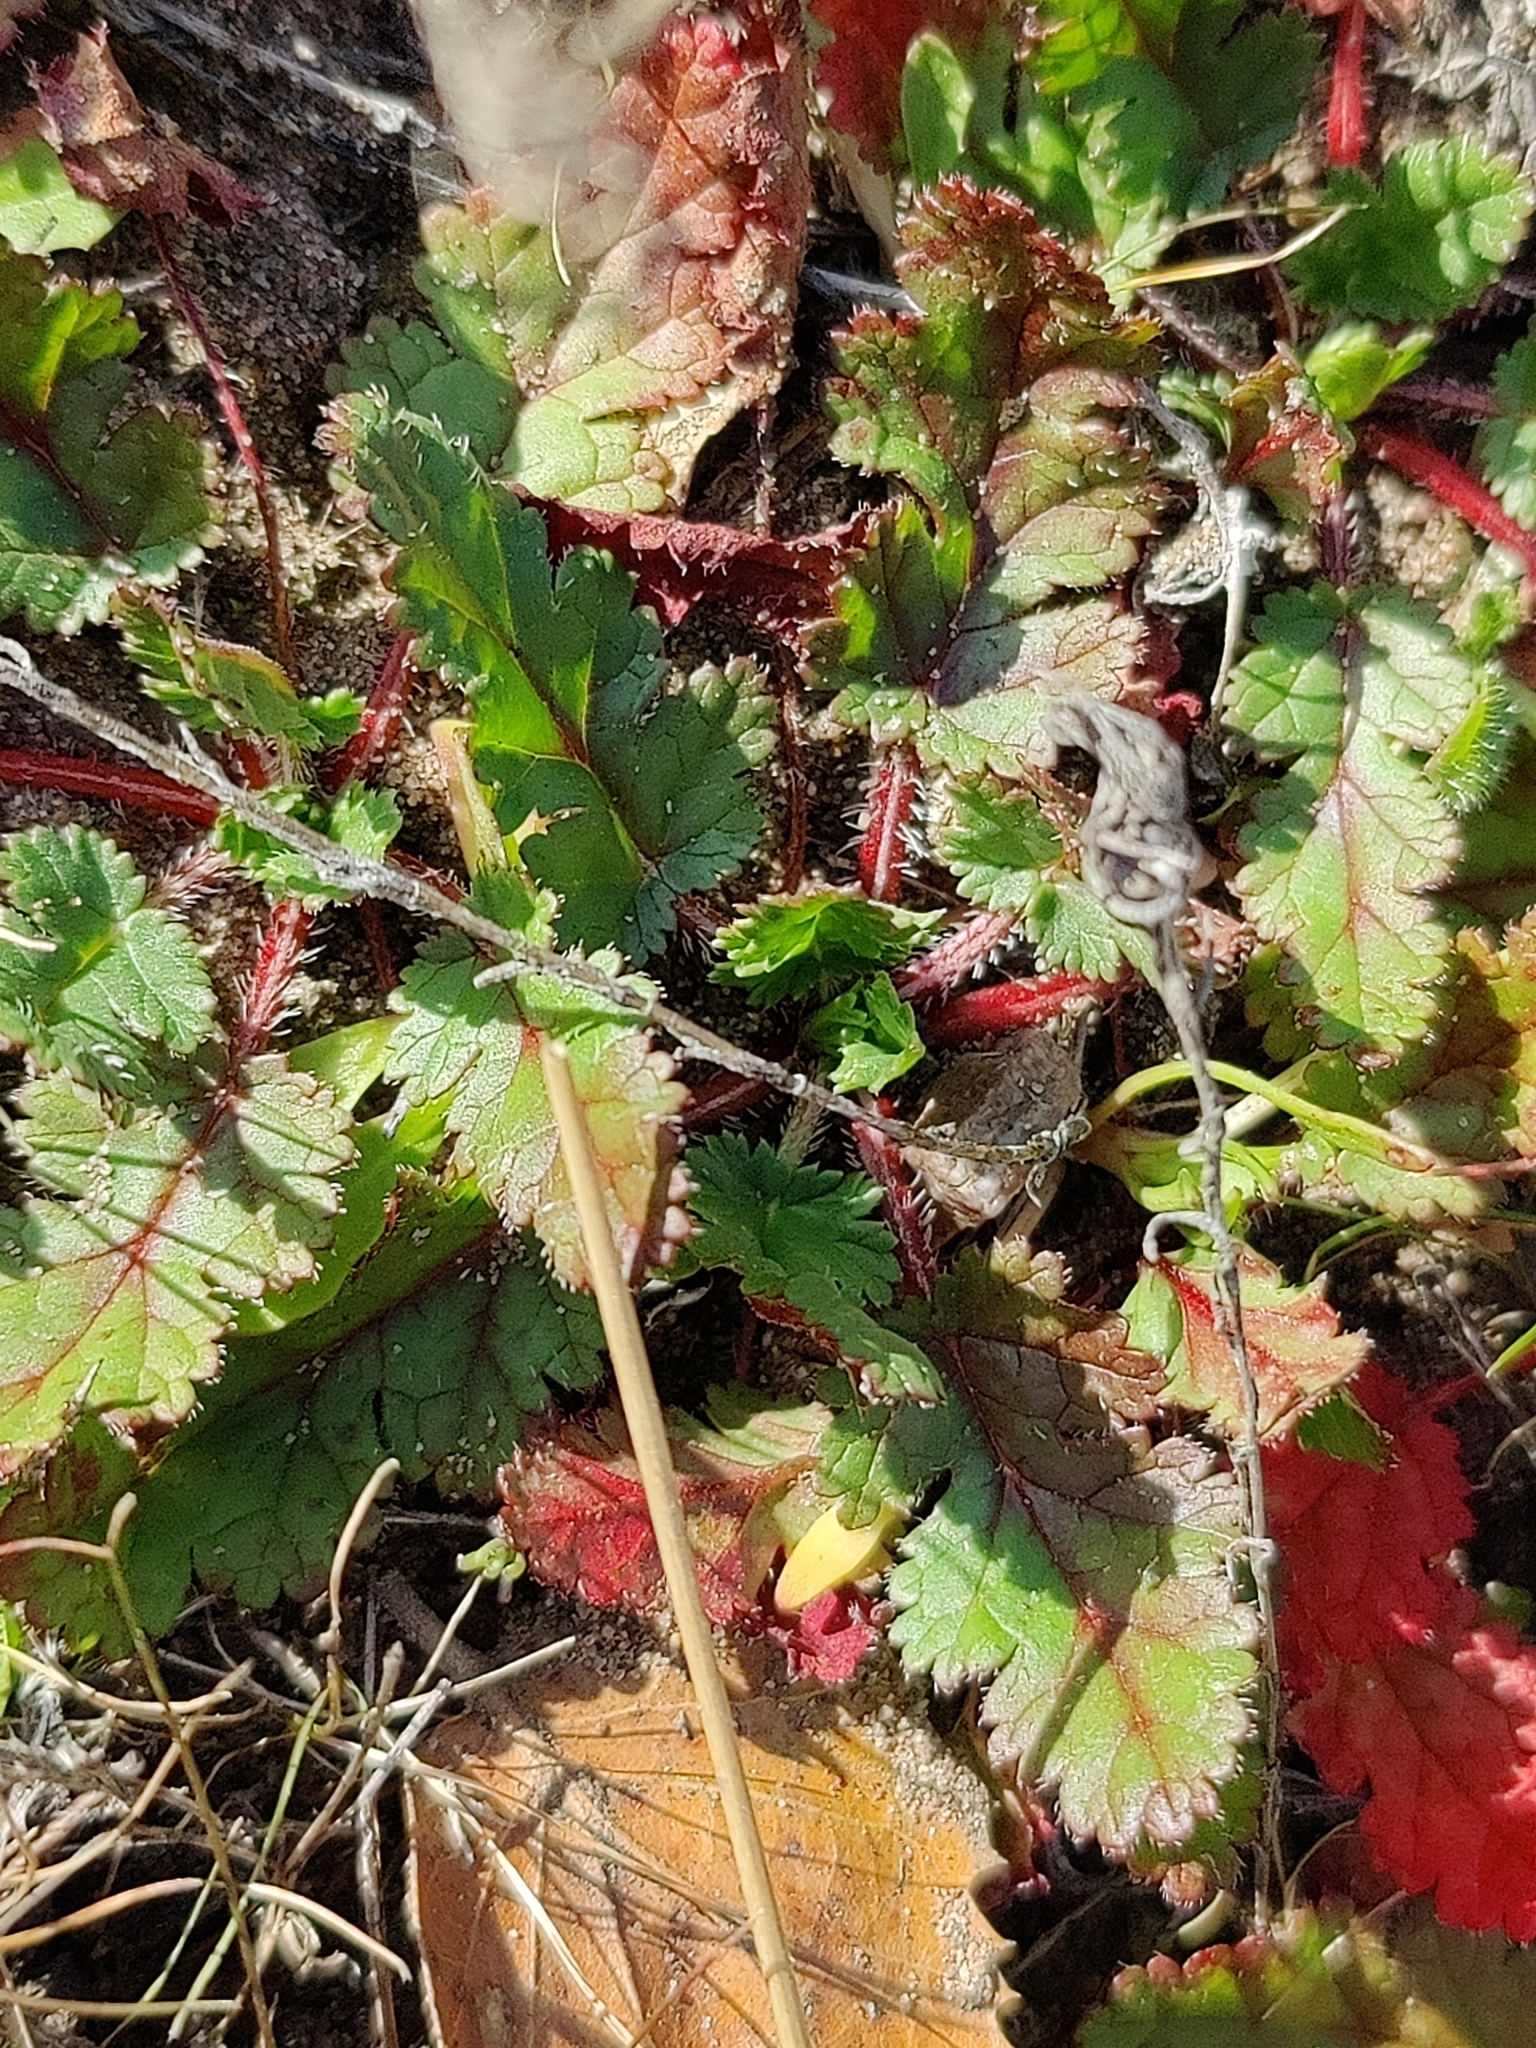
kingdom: Plantae
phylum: Tracheophyta
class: Magnoliopsida
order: Geraniales
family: Geraniaceae
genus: Erodium
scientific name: Erodium
